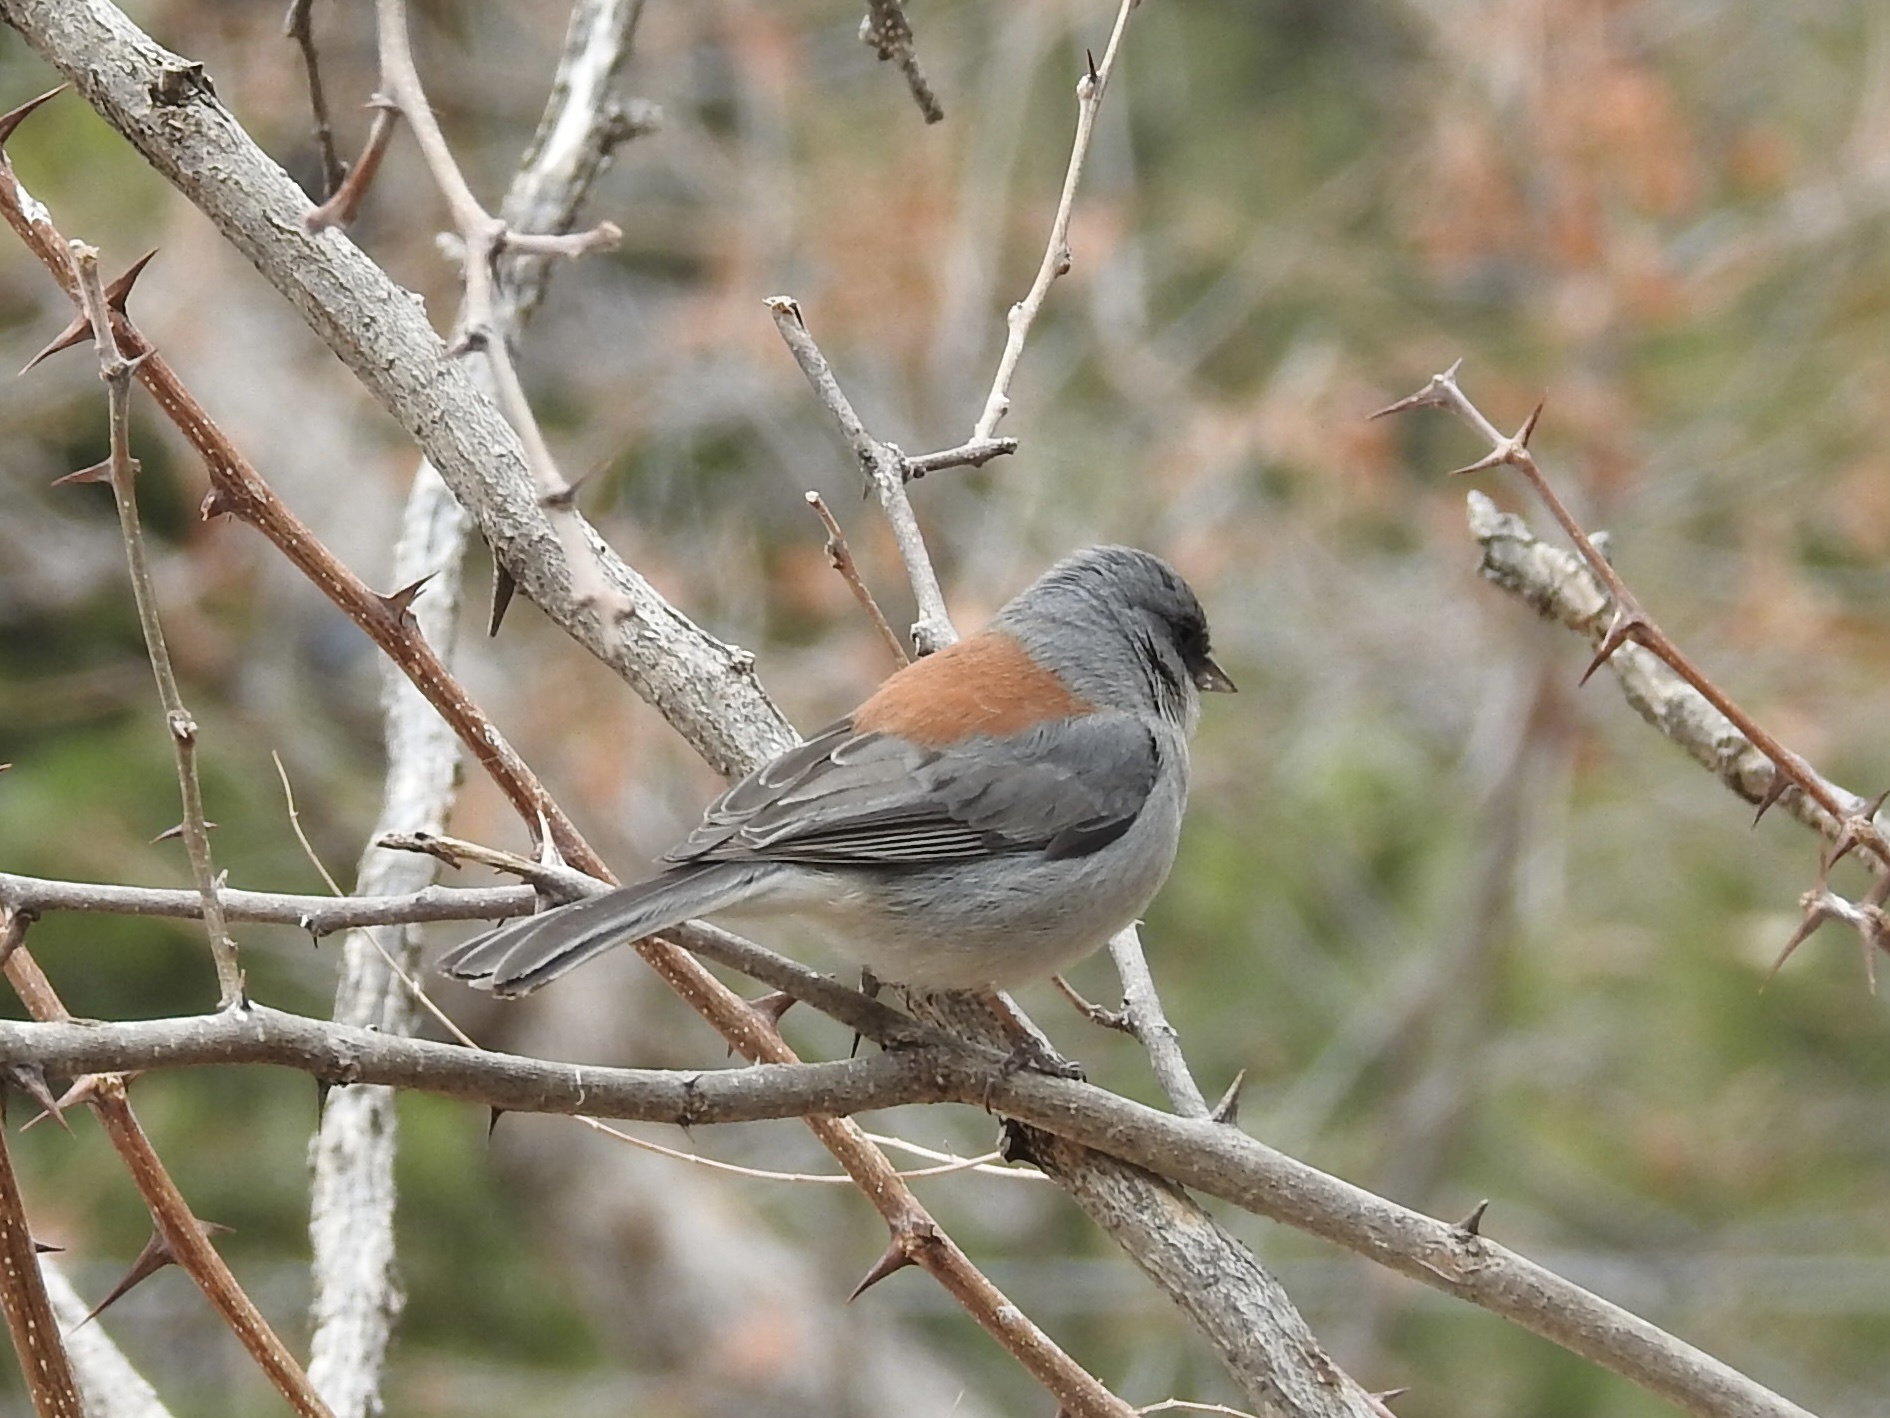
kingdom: Animalia
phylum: Chordata
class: Aves
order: Passeriformes
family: Passerellidae
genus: Junco
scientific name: Junco hyemalis
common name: Dark-eyed junco
